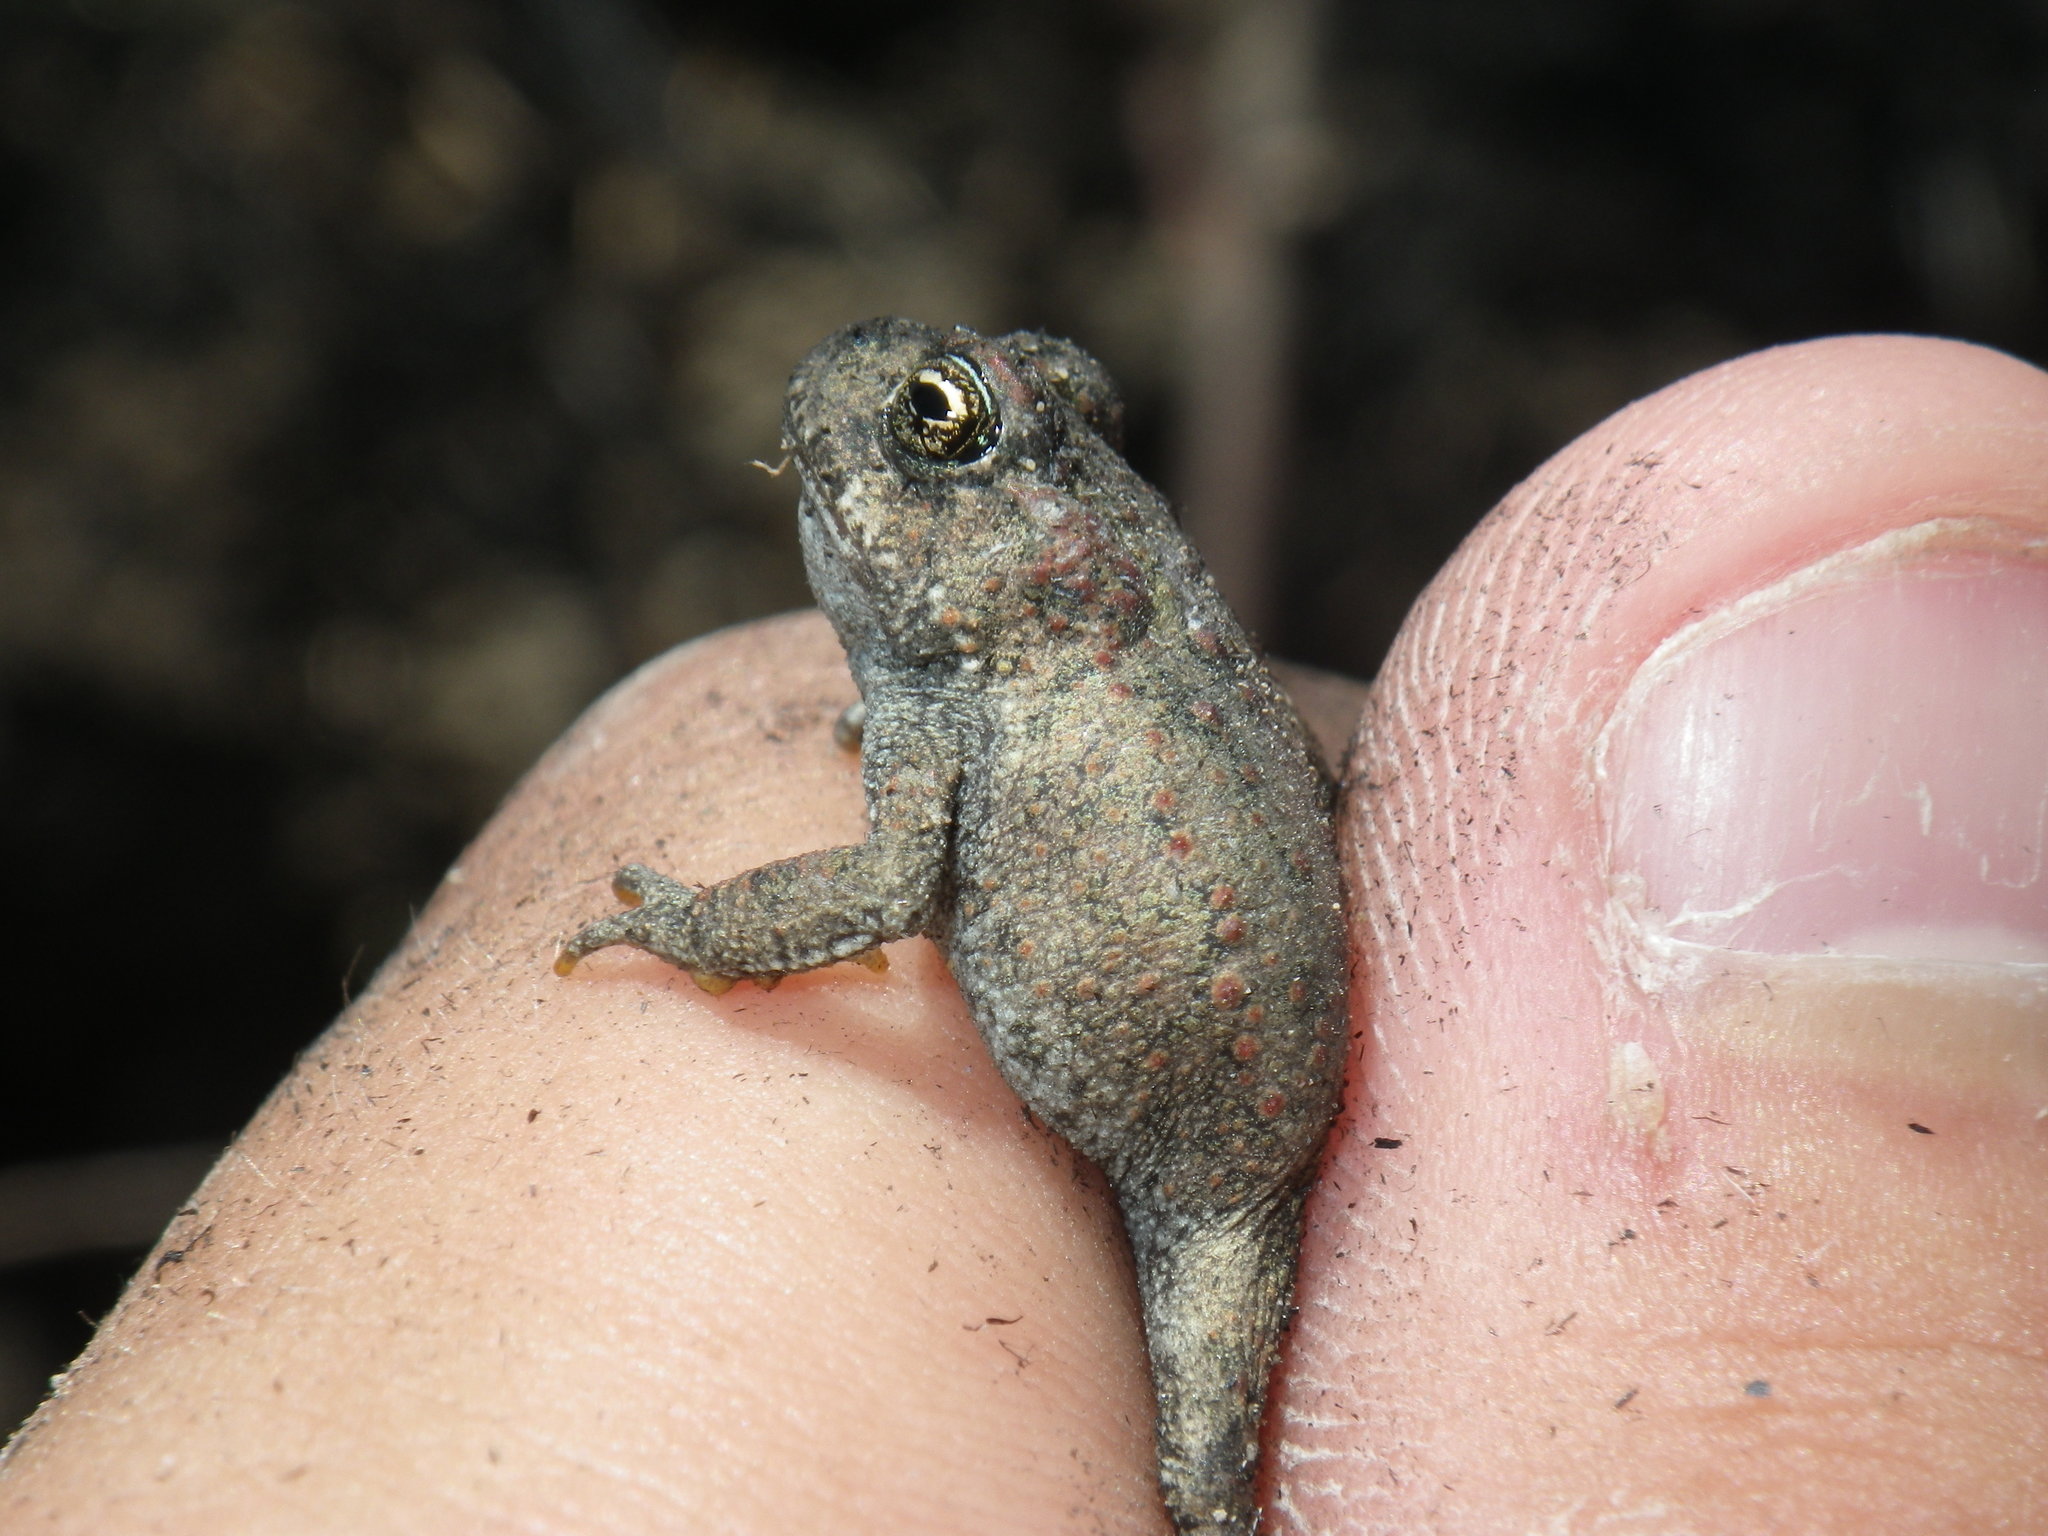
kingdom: Animalia
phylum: Chordata
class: Amphibia
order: Anura
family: Bufonidae
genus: Anaxyrus
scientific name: Anaxyrus boreas
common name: Western toad
